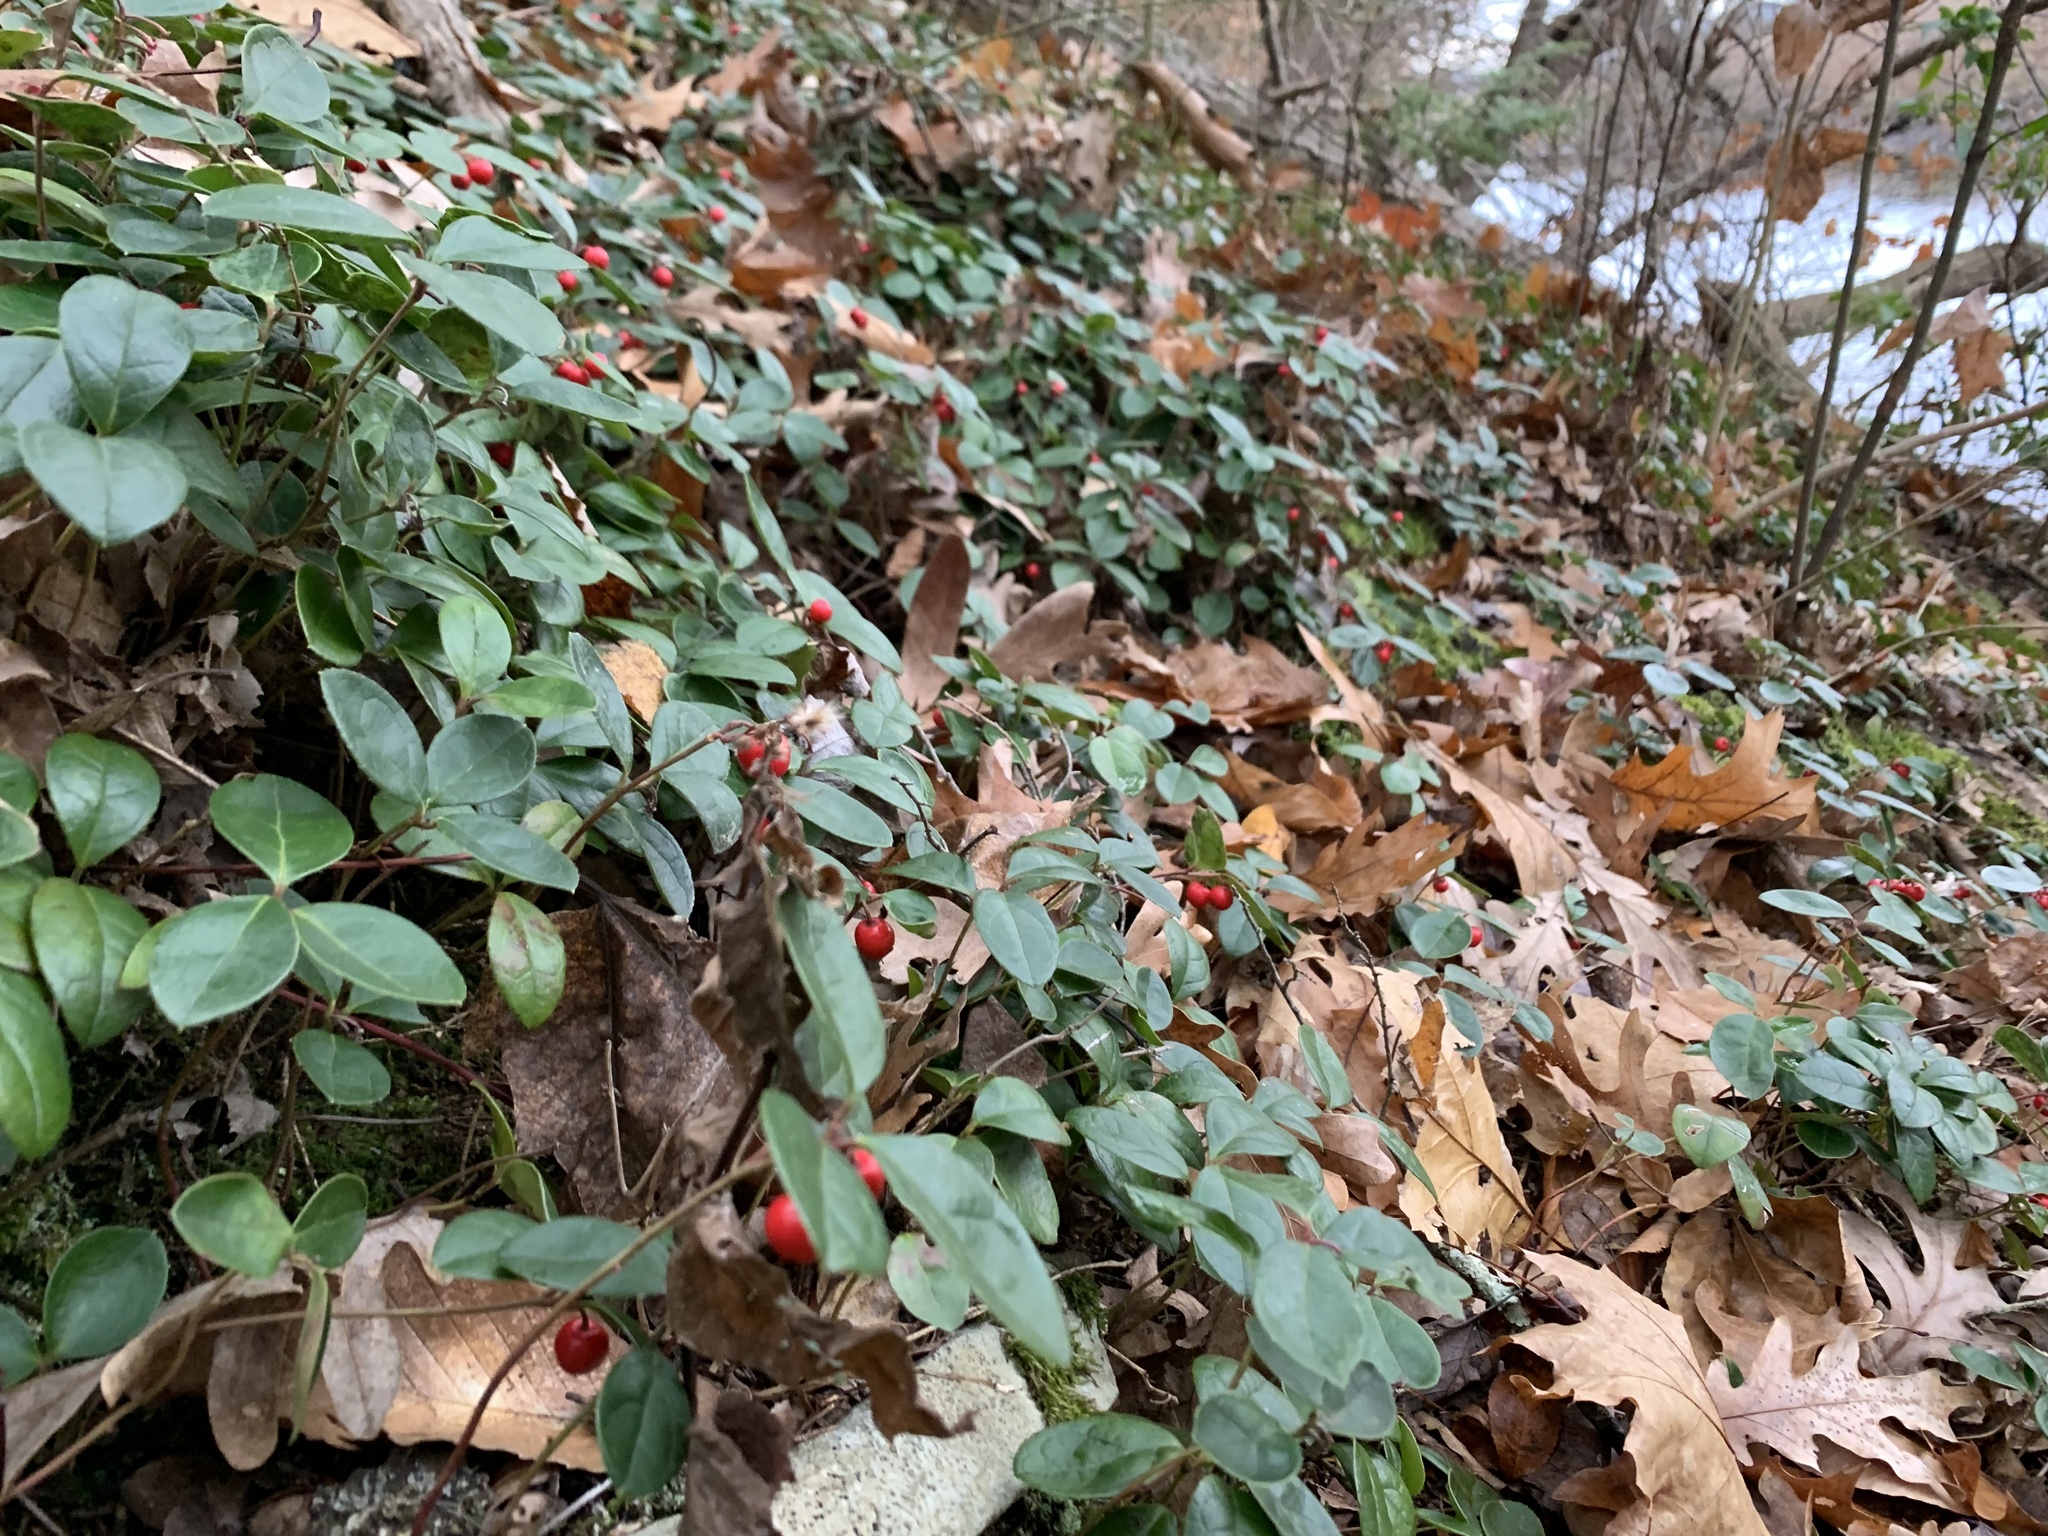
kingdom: Plantae
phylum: Tracheophyta
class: Magnoliopsida
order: Ericales
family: Ericaceae
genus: Gaultheria
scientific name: Gaultheria procumbens
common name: Checkerberry
